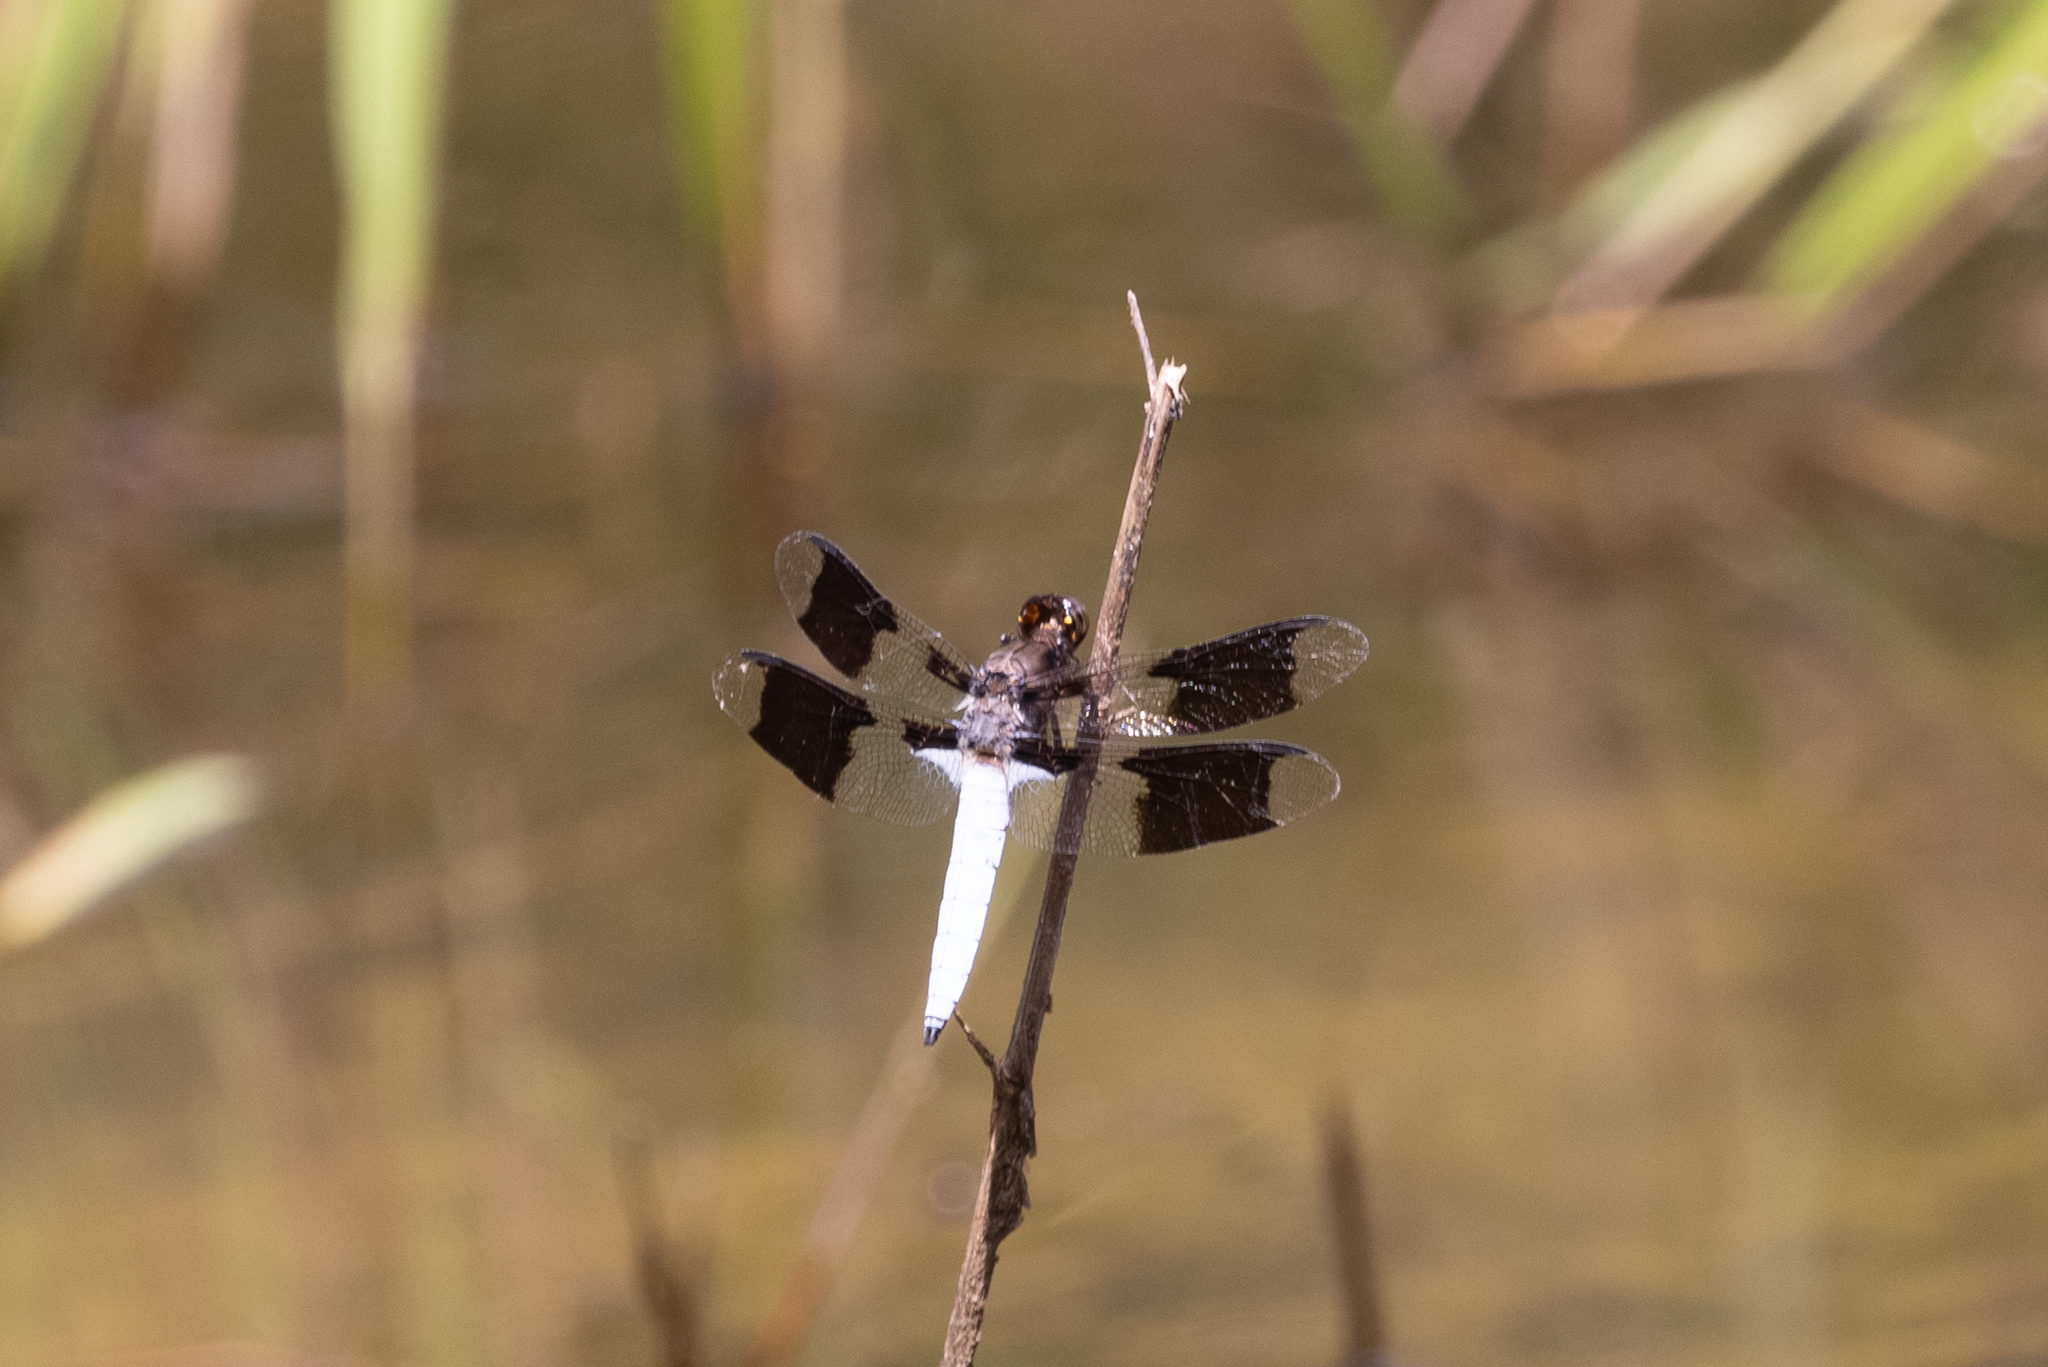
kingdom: Animalia
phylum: Arthropoda
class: Insecta
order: Odonata
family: Libellulidae
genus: Plathemis
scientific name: Plathemis lydia
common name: Common whitetail
